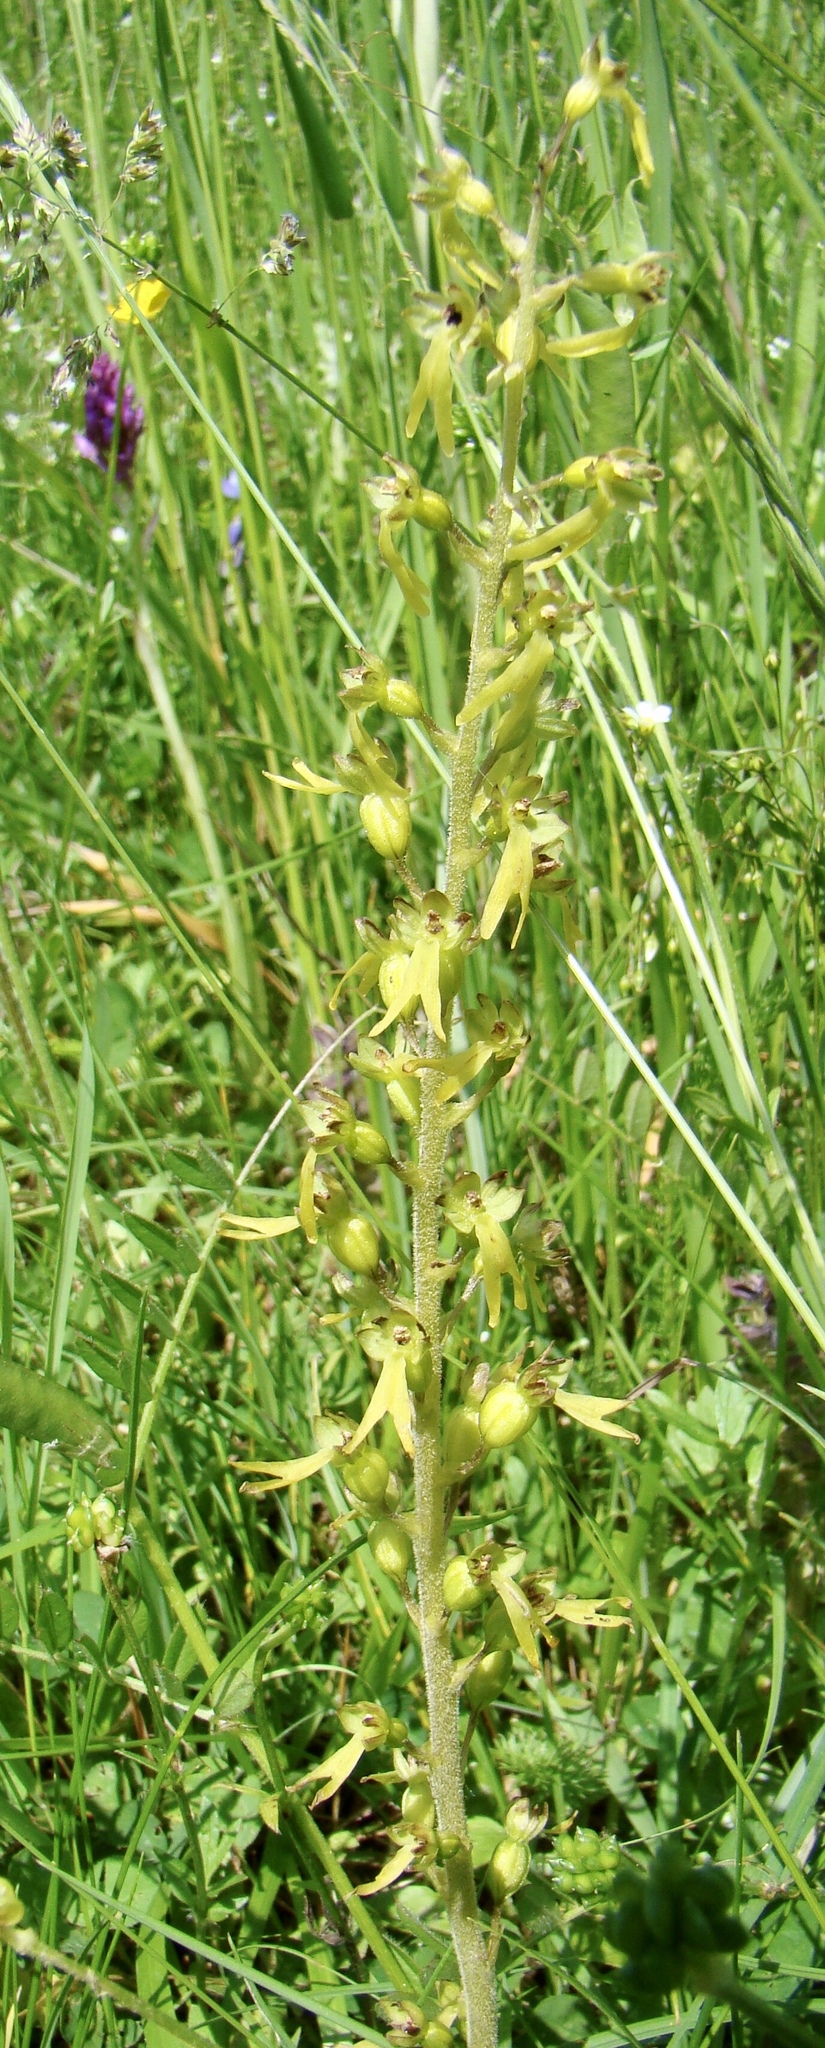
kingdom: Plantae
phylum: Tracheophyta
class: Liliopsida
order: Asparagales
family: Orchidaceae
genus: Neottia
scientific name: Neottia ovata
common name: Common twayblade
